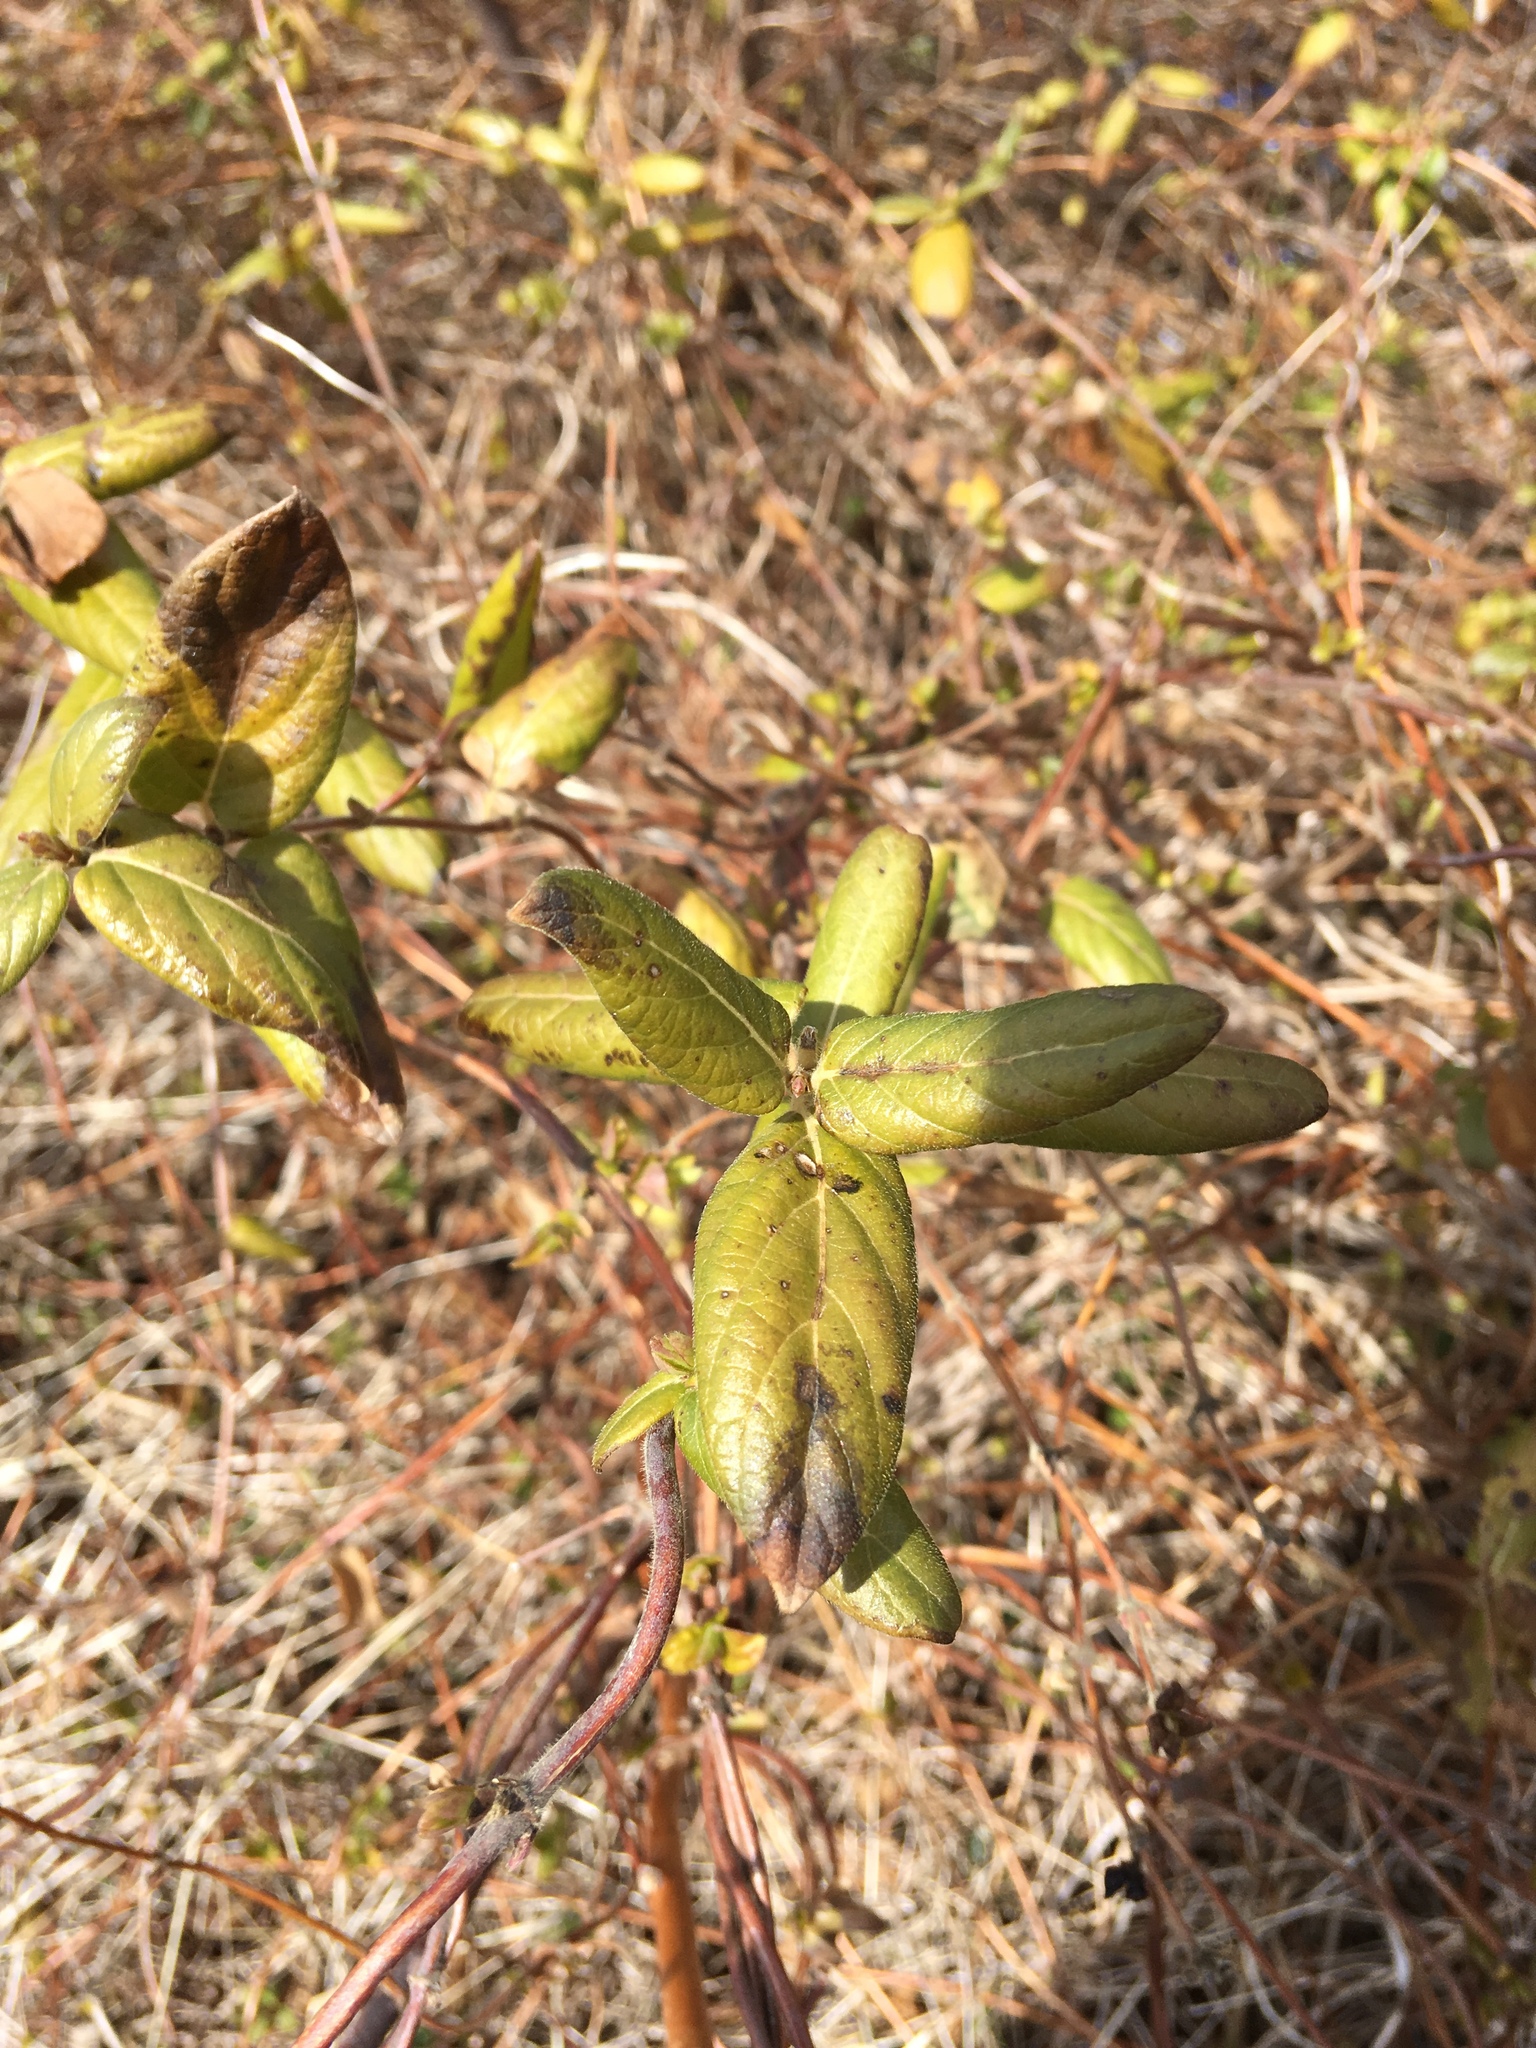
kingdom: Plantae
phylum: Tracheophyta
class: Magnoliopsida
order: Dipsacales
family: Caprifoliaceae
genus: Lonicera
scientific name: Lonicera japonica
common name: Japanese honeysuckle
